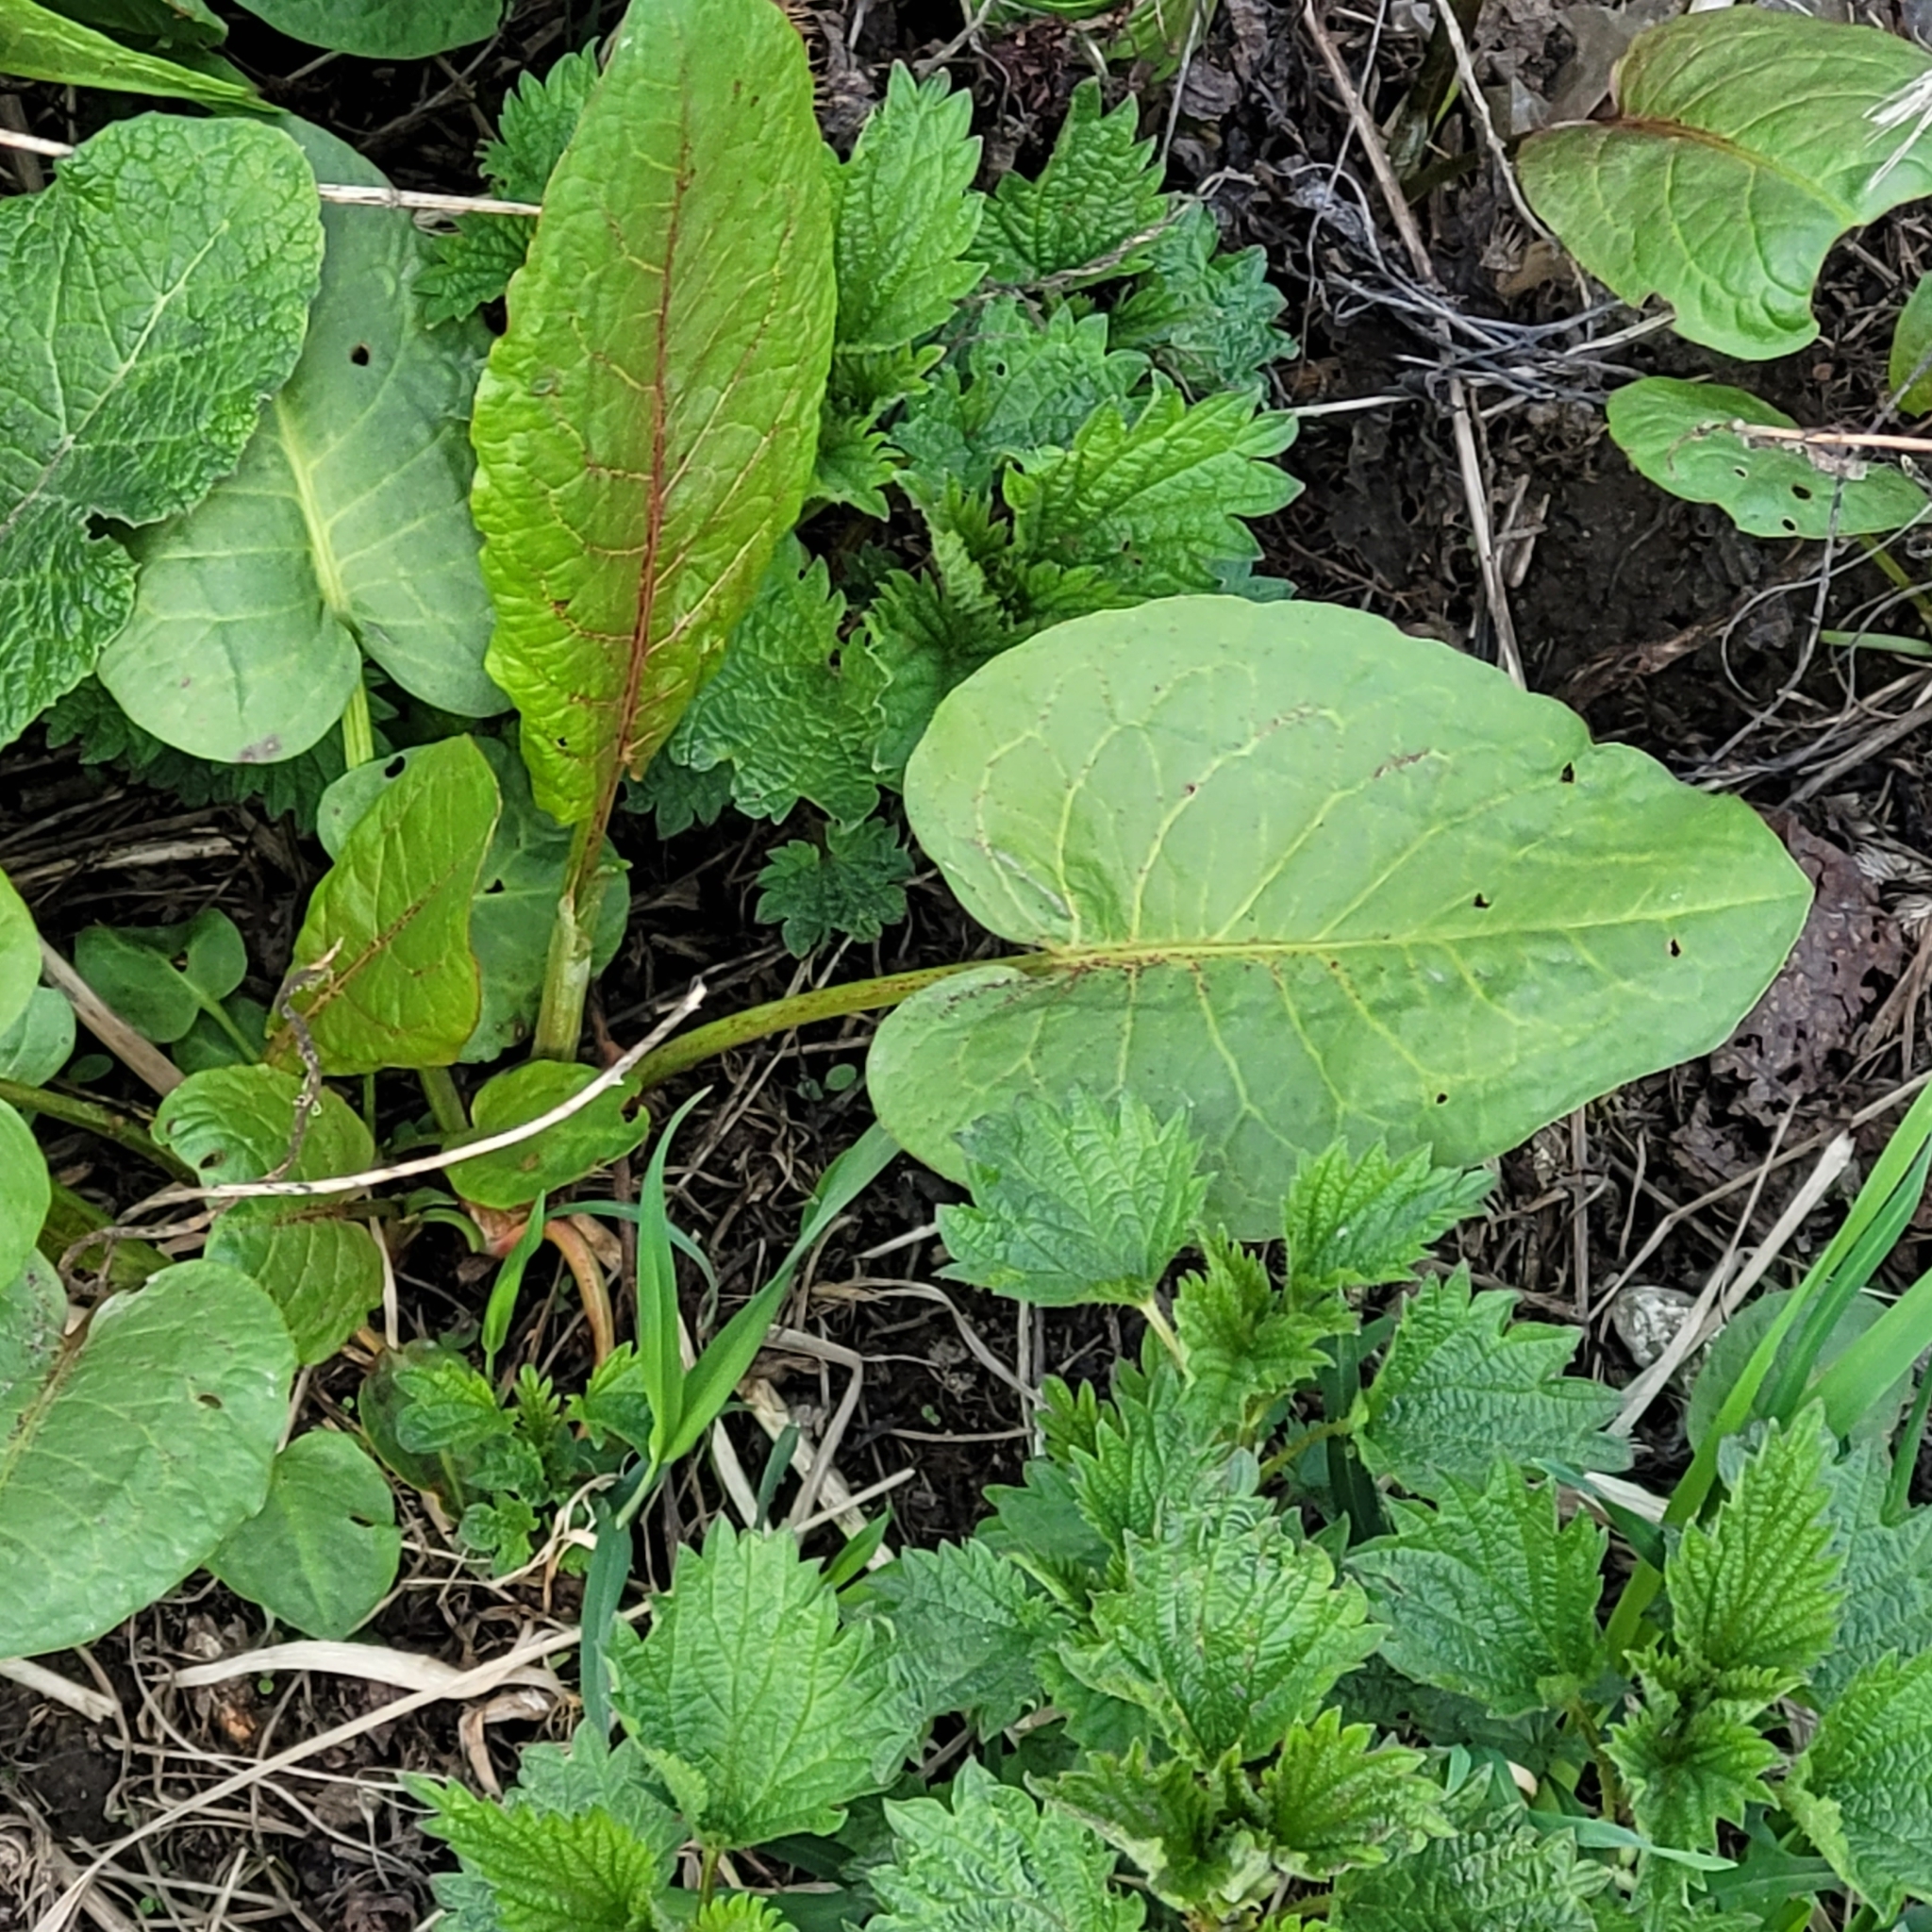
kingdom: Plantae
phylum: Tracheophyta
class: Magnoliopsida
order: Caryophyllales
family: Polygonaceae
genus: Rumex
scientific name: Rumex obtusifolius
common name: Bitter dock
